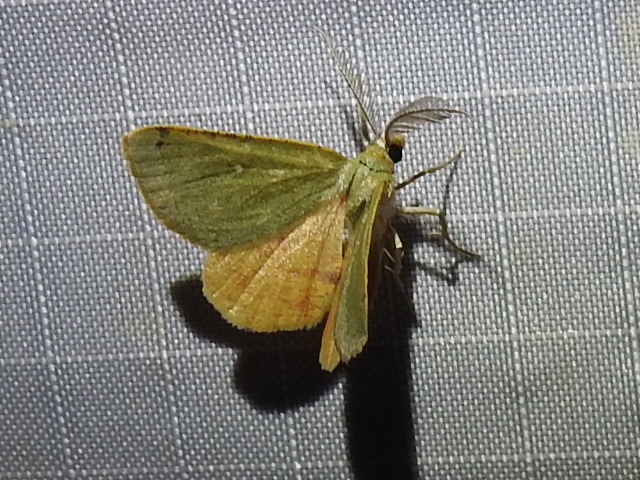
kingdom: Animalia
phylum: Arthropoda
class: Insecta
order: Lepidoptera
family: Geometridae
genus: Chloraspilates
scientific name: Chloraspilates bicoloraria
